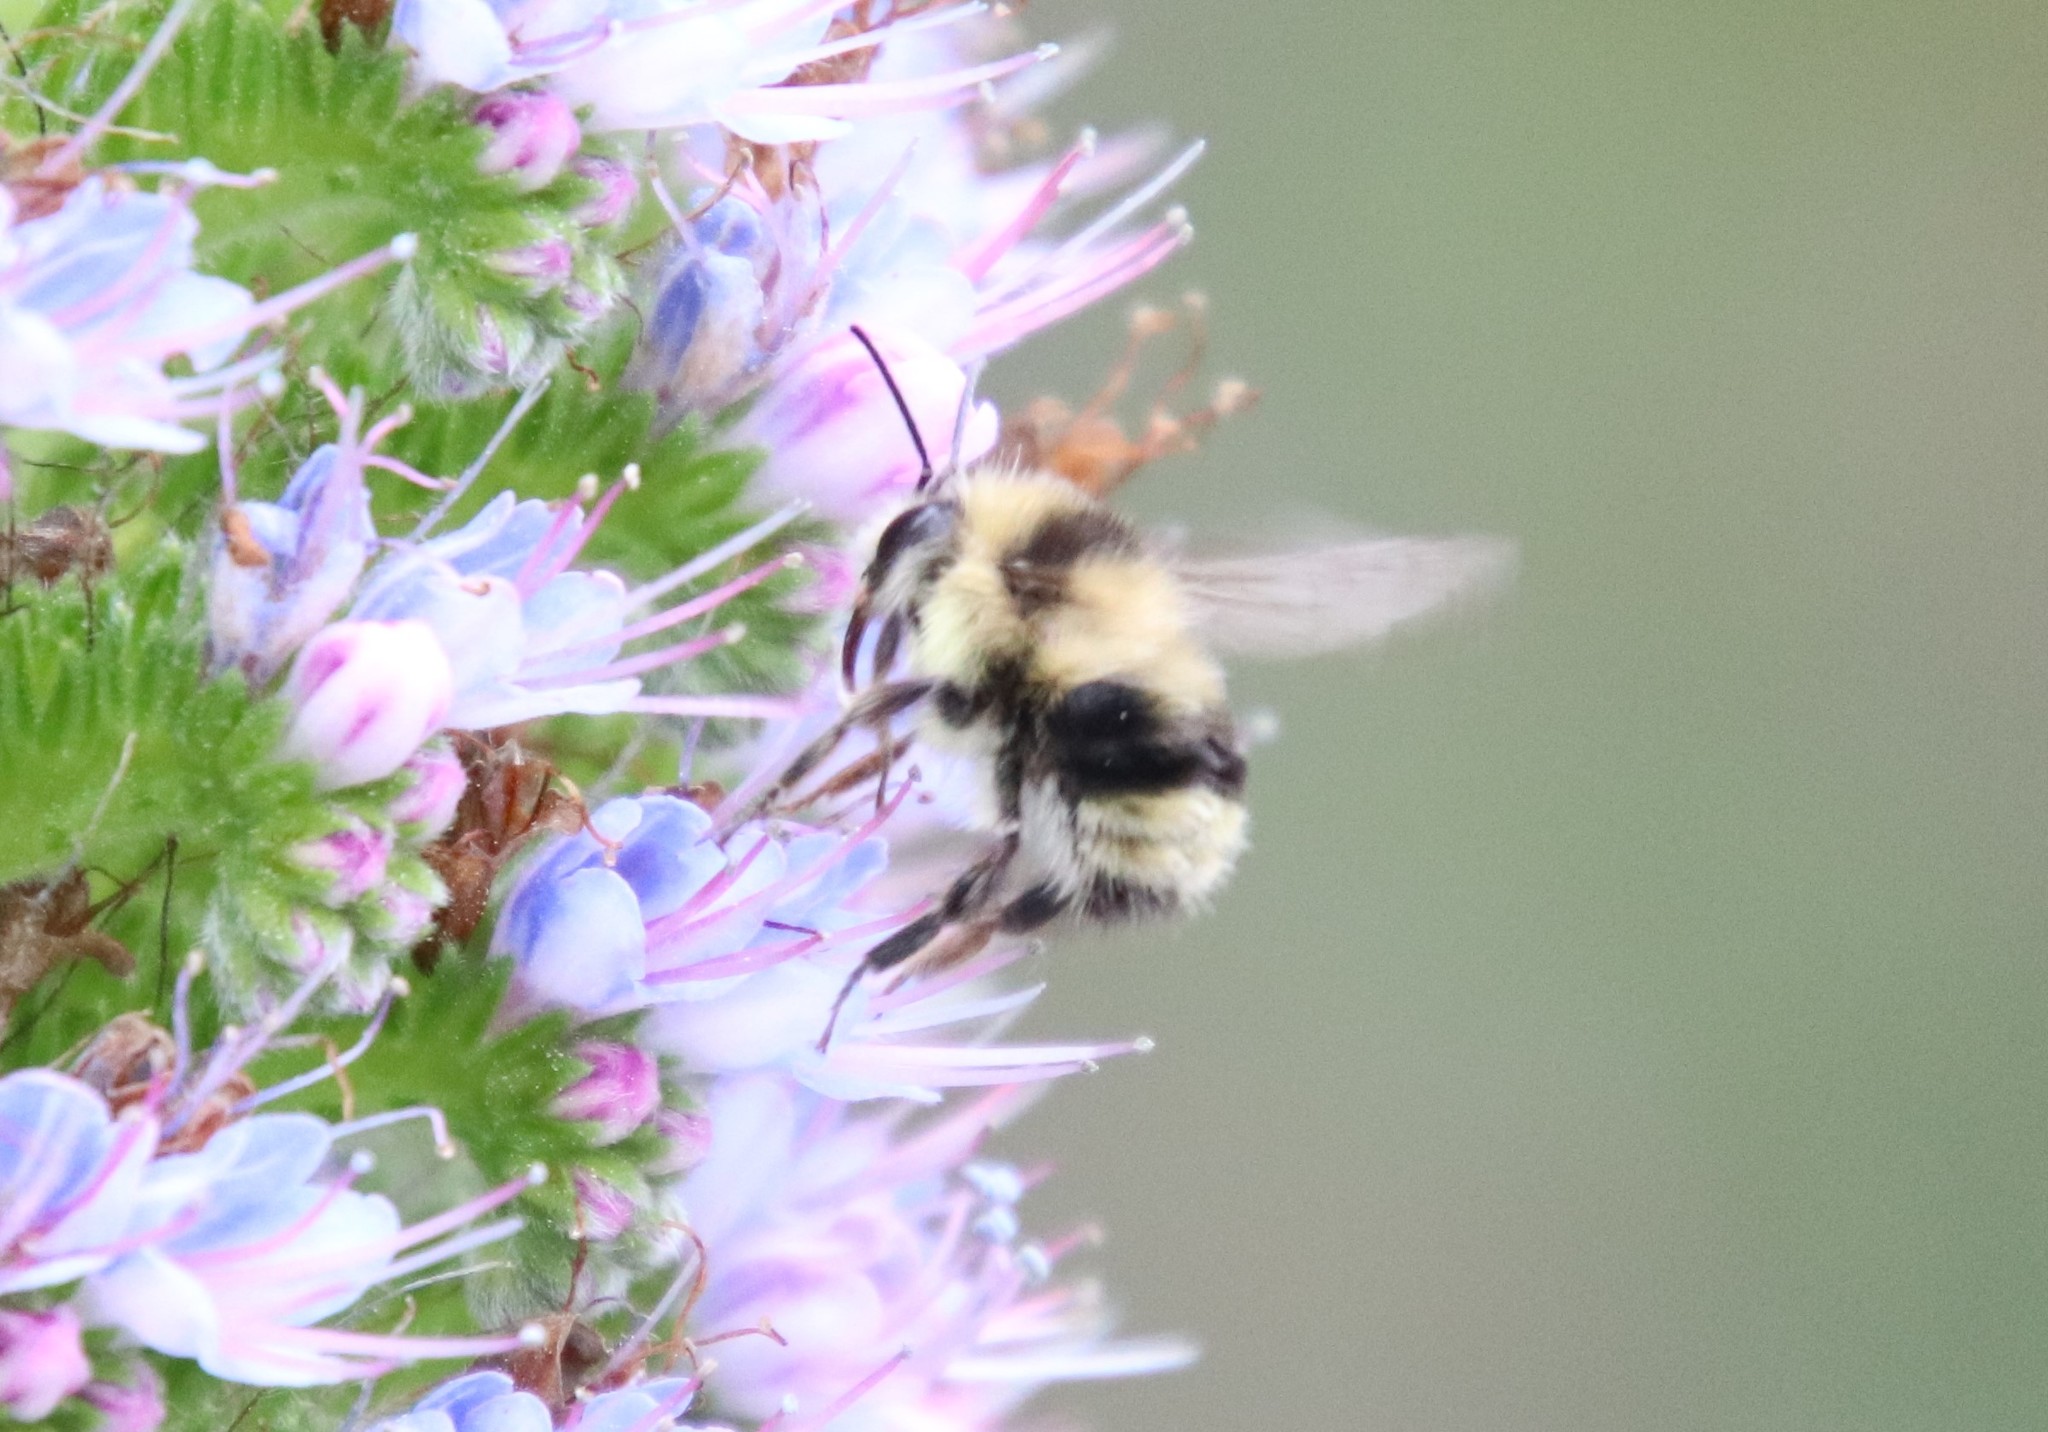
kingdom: Animalia
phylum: Arthropoda
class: Insecta
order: Hymenoptera
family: Apidae
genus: Bombus
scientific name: Bombus melanopygus
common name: Black tail bumble bee
